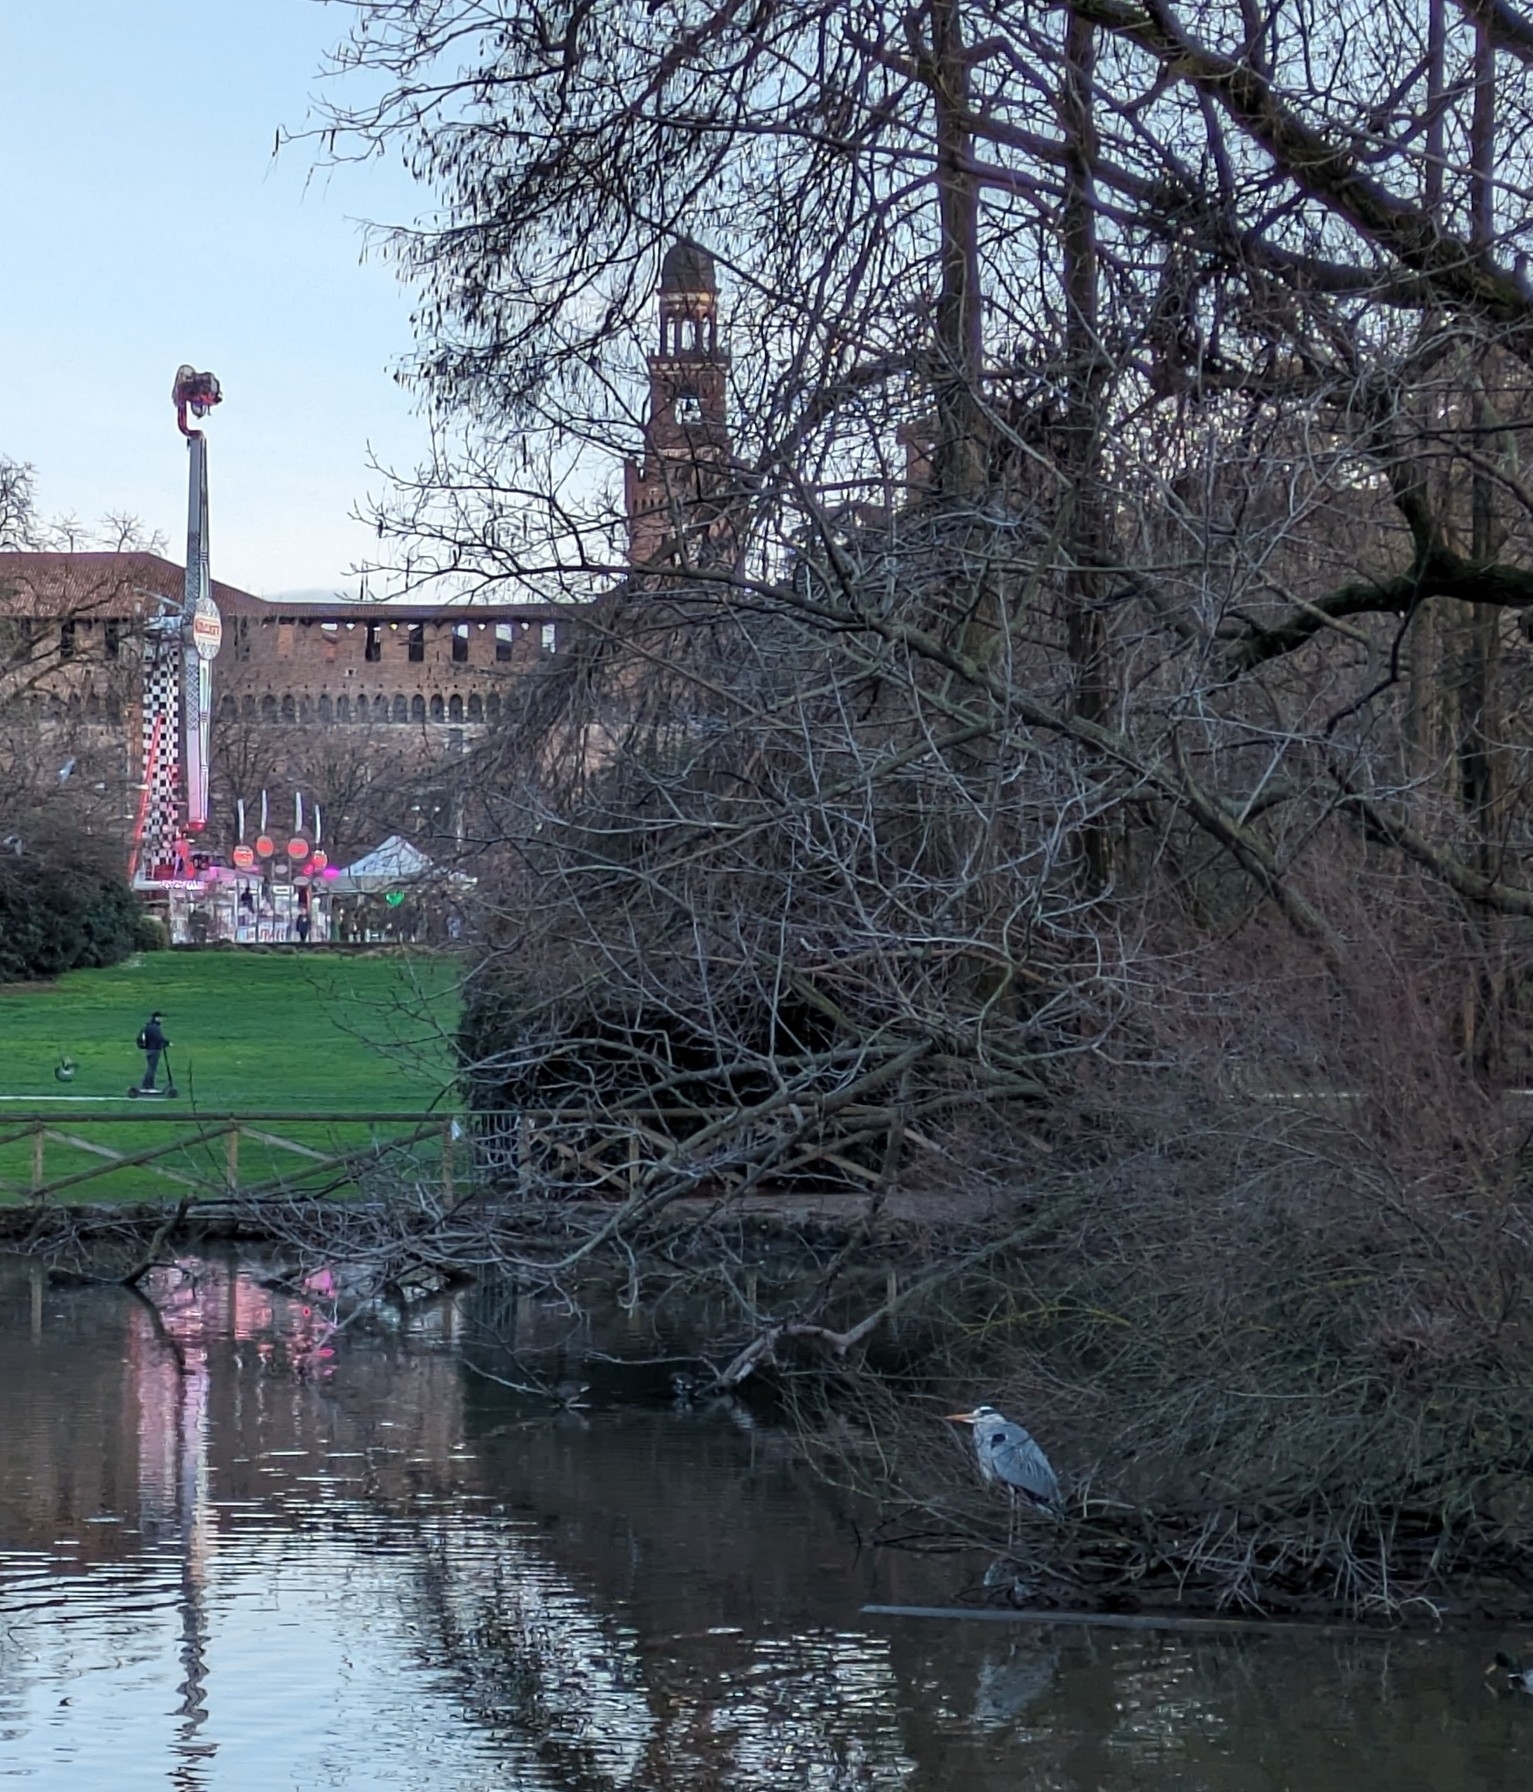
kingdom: Animalia
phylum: Chordata
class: Aves
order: Pelecaniformes
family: Ardeidae
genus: Ardea
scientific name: Ardea cinerea
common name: Grey heron
